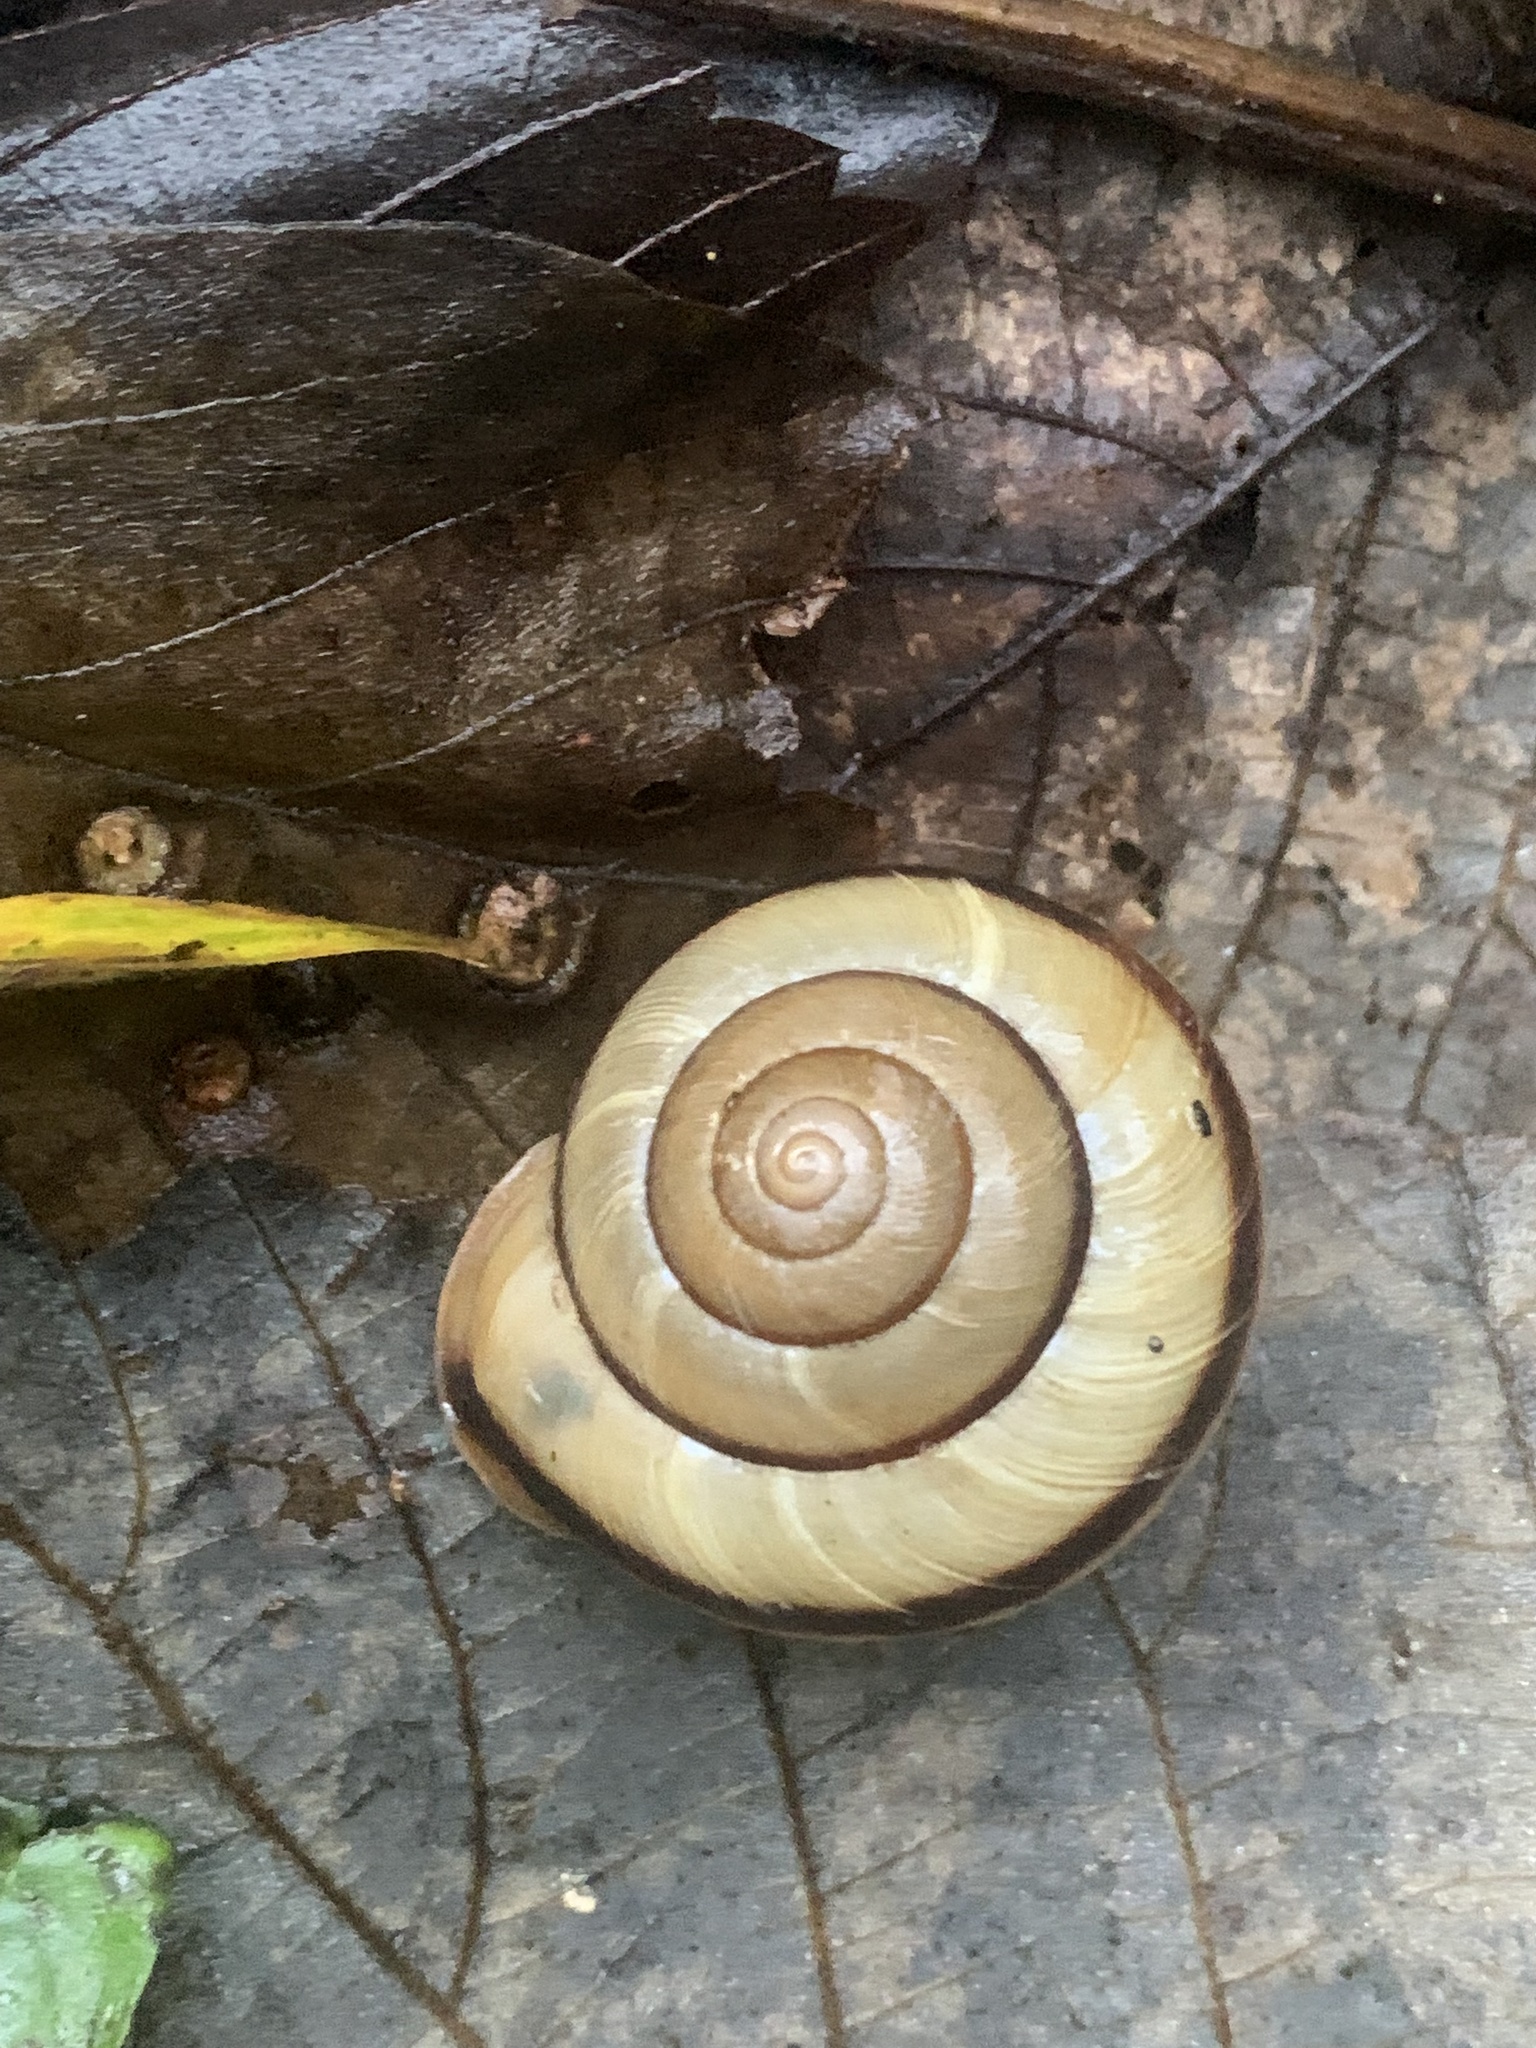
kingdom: Animalia
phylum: Mollusca
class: Gastropoda
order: Stylommatophora
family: Camaenidae
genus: Euhadra
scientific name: Euhadra subnimbosa
